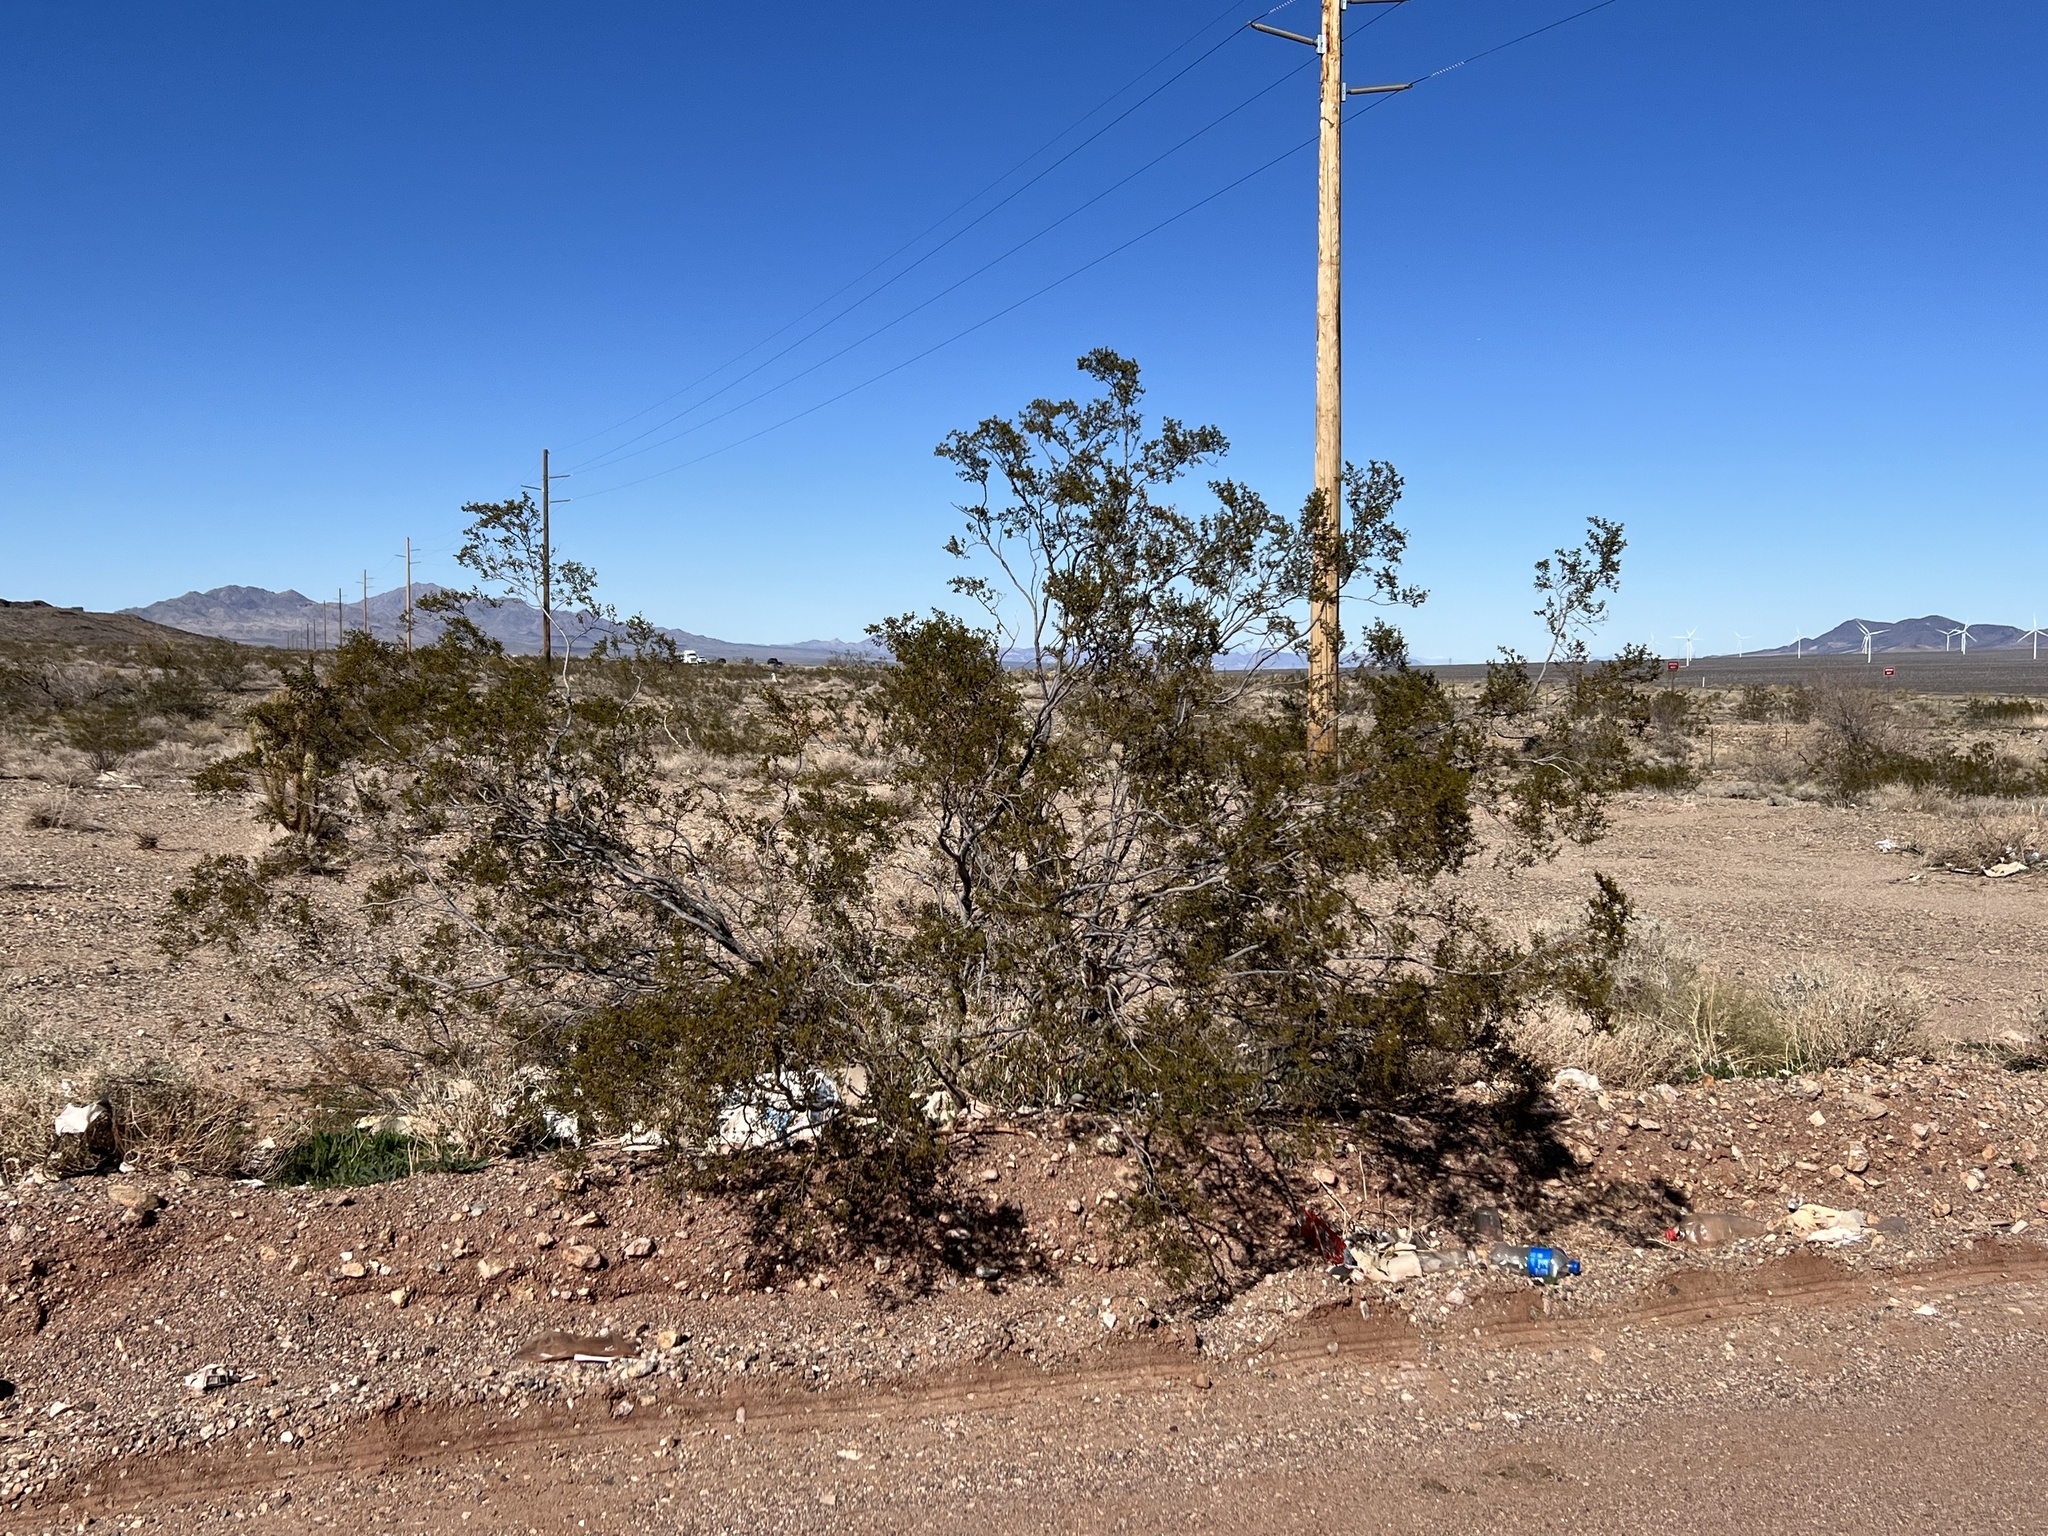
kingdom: Plantae
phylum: Tracheophyta
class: Magnoliopsida
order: Zygophyllales
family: Zygophyllaceae
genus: Larrea
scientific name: Larrea tridentata
